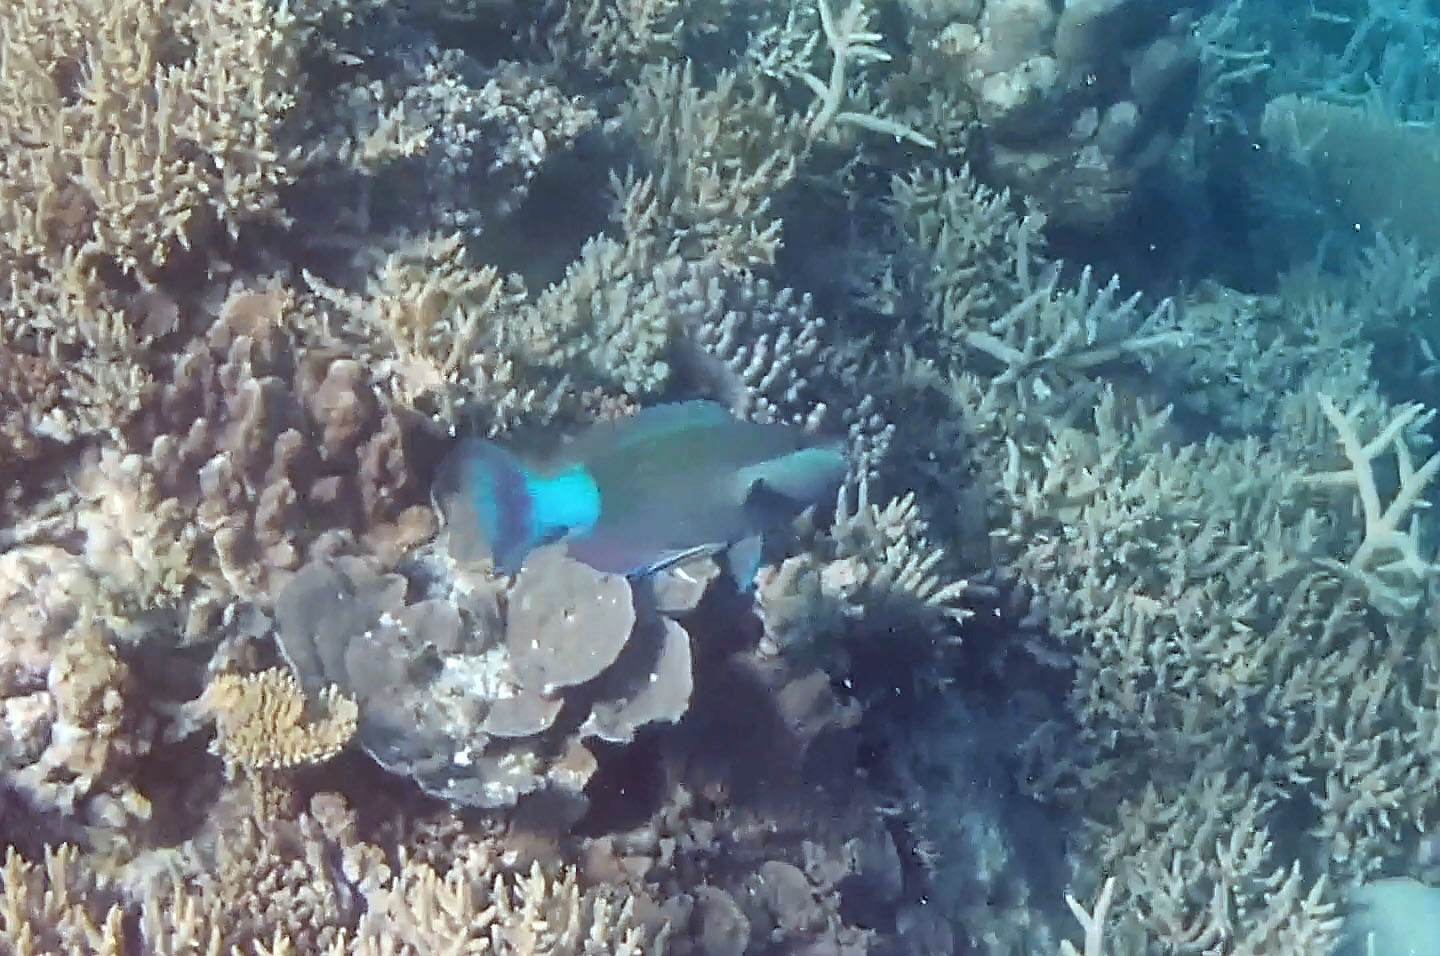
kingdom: Animalia
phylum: Chordata
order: Perciformes
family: Scaridae
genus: Scarus
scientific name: Scarus frenatus
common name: Bridled parrotfish
